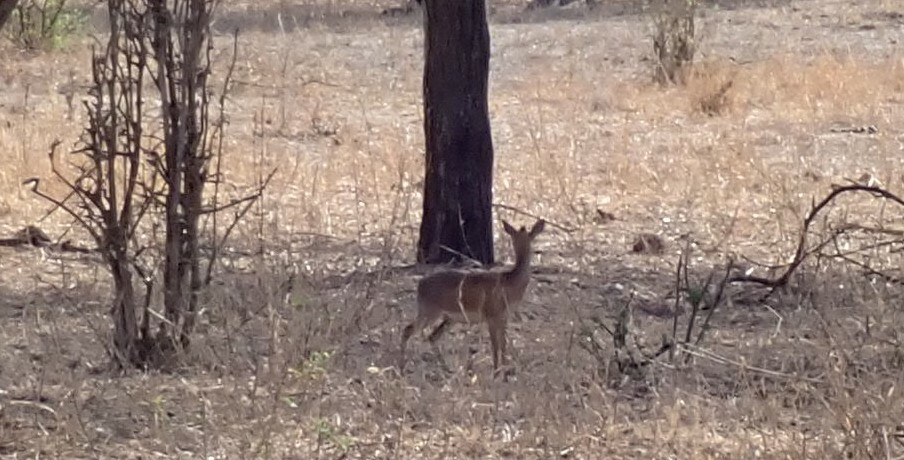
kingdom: Animalia
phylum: Chordata
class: Mammalia
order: Artiodactyla
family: Bovidae
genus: Madoqua
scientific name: Madoqua
